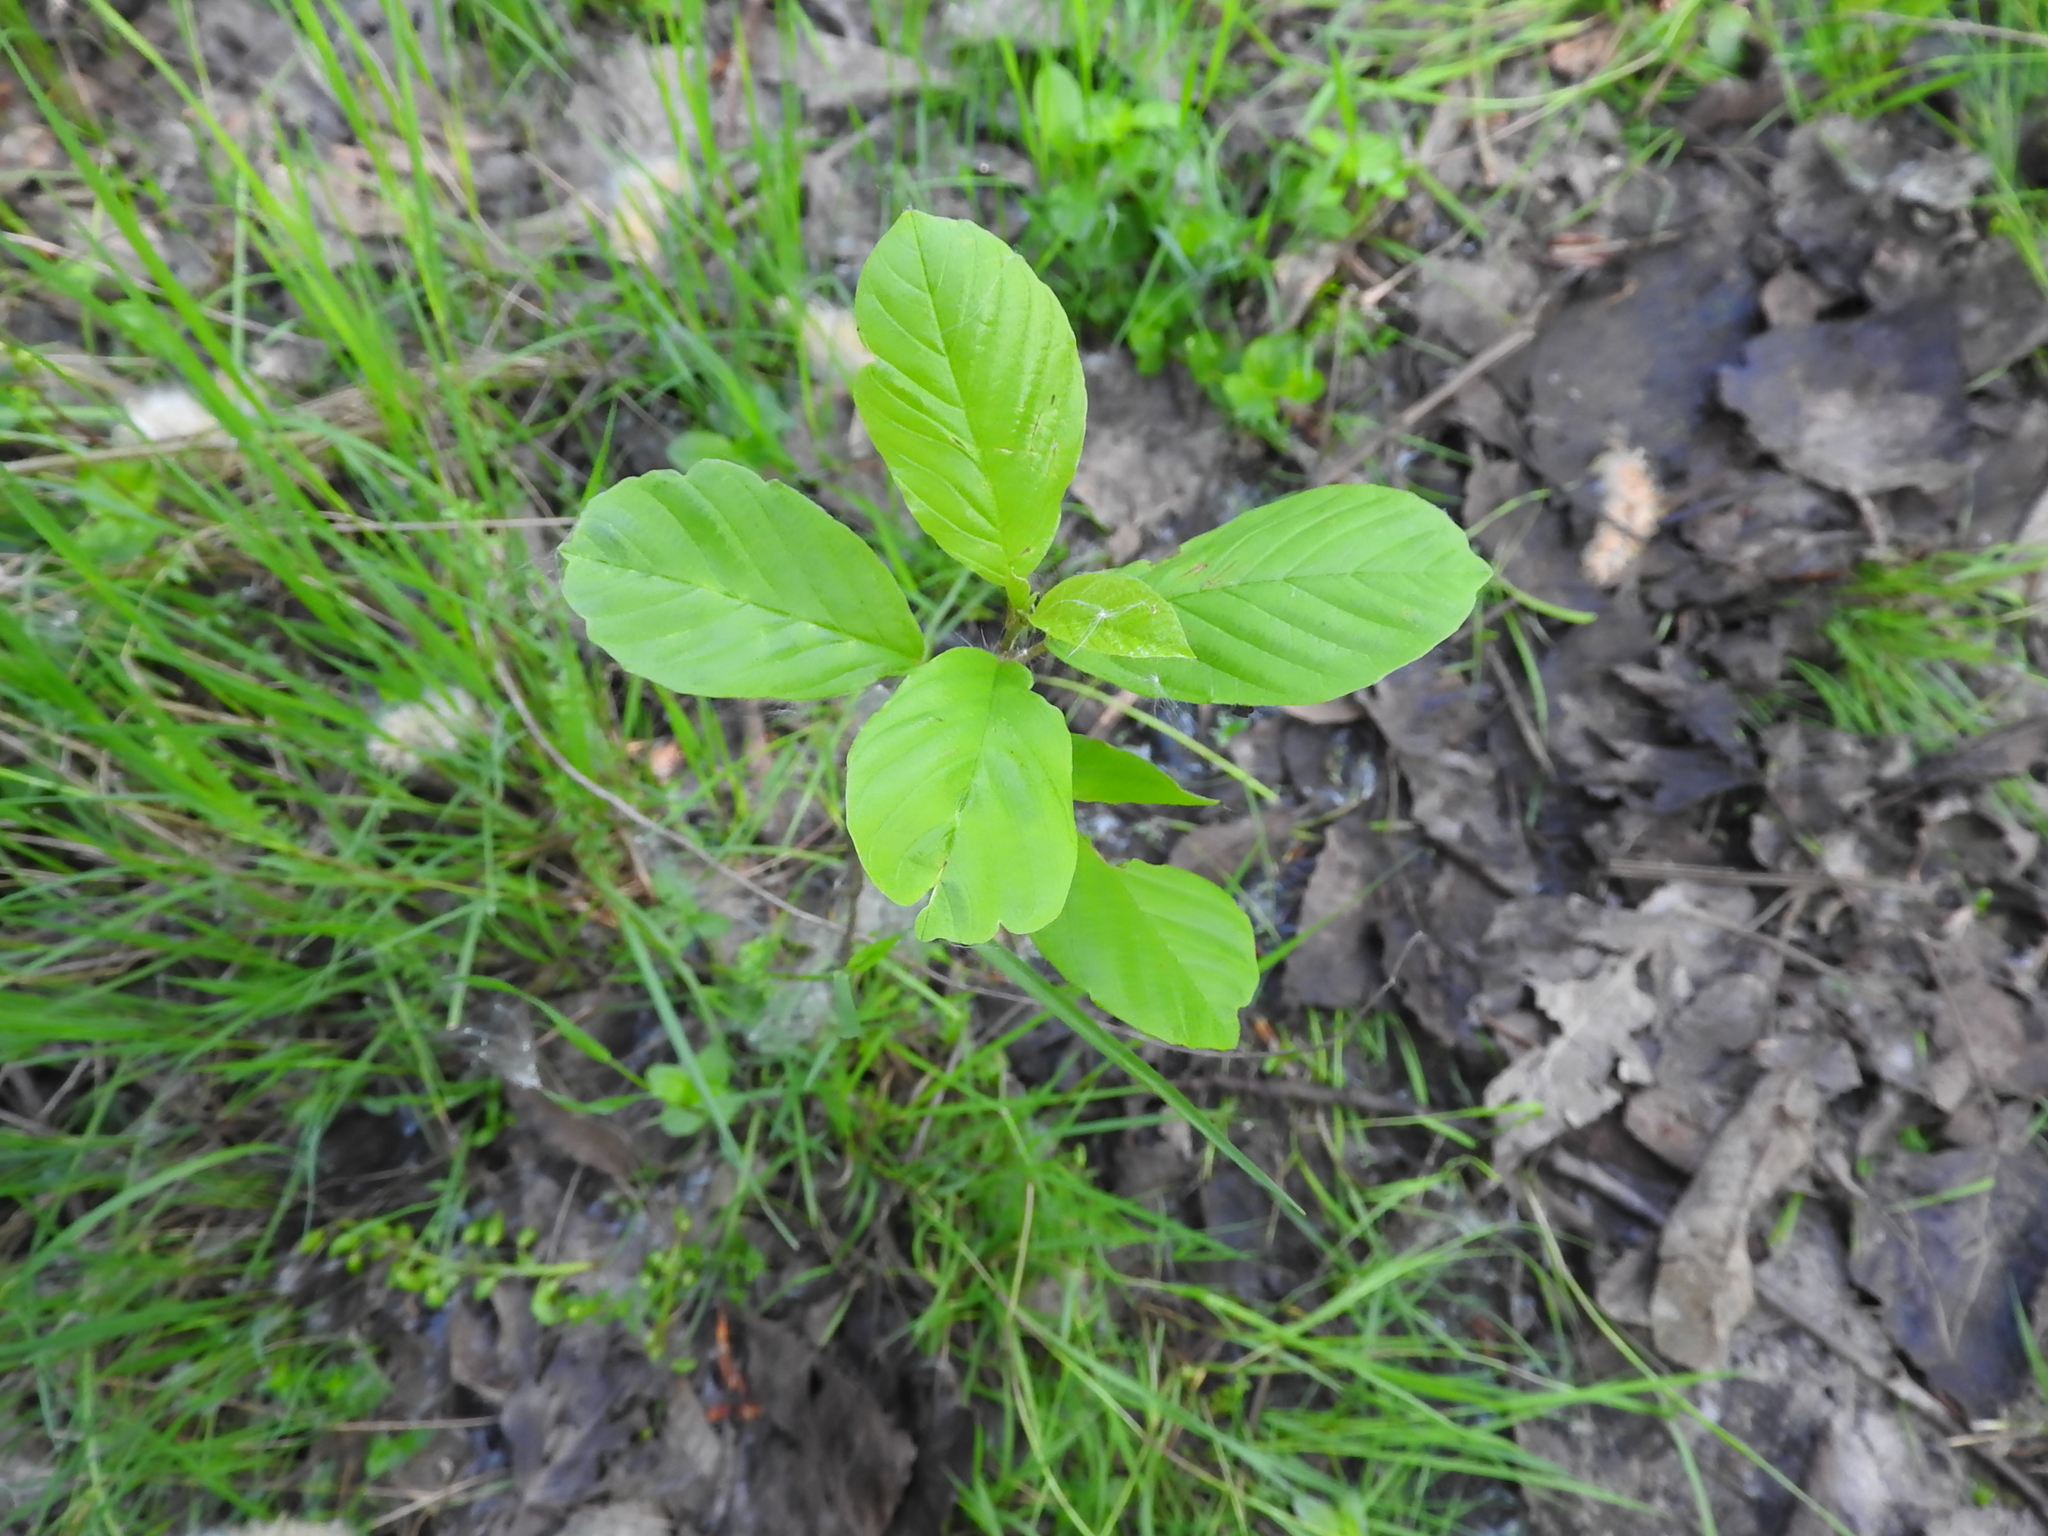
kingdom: Plantae
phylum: Tracheophyta
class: Magnoliopsida
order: Rosales
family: Rhamnaceae
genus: Frangula
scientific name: Frangula alnus
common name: Alder buckthorn
